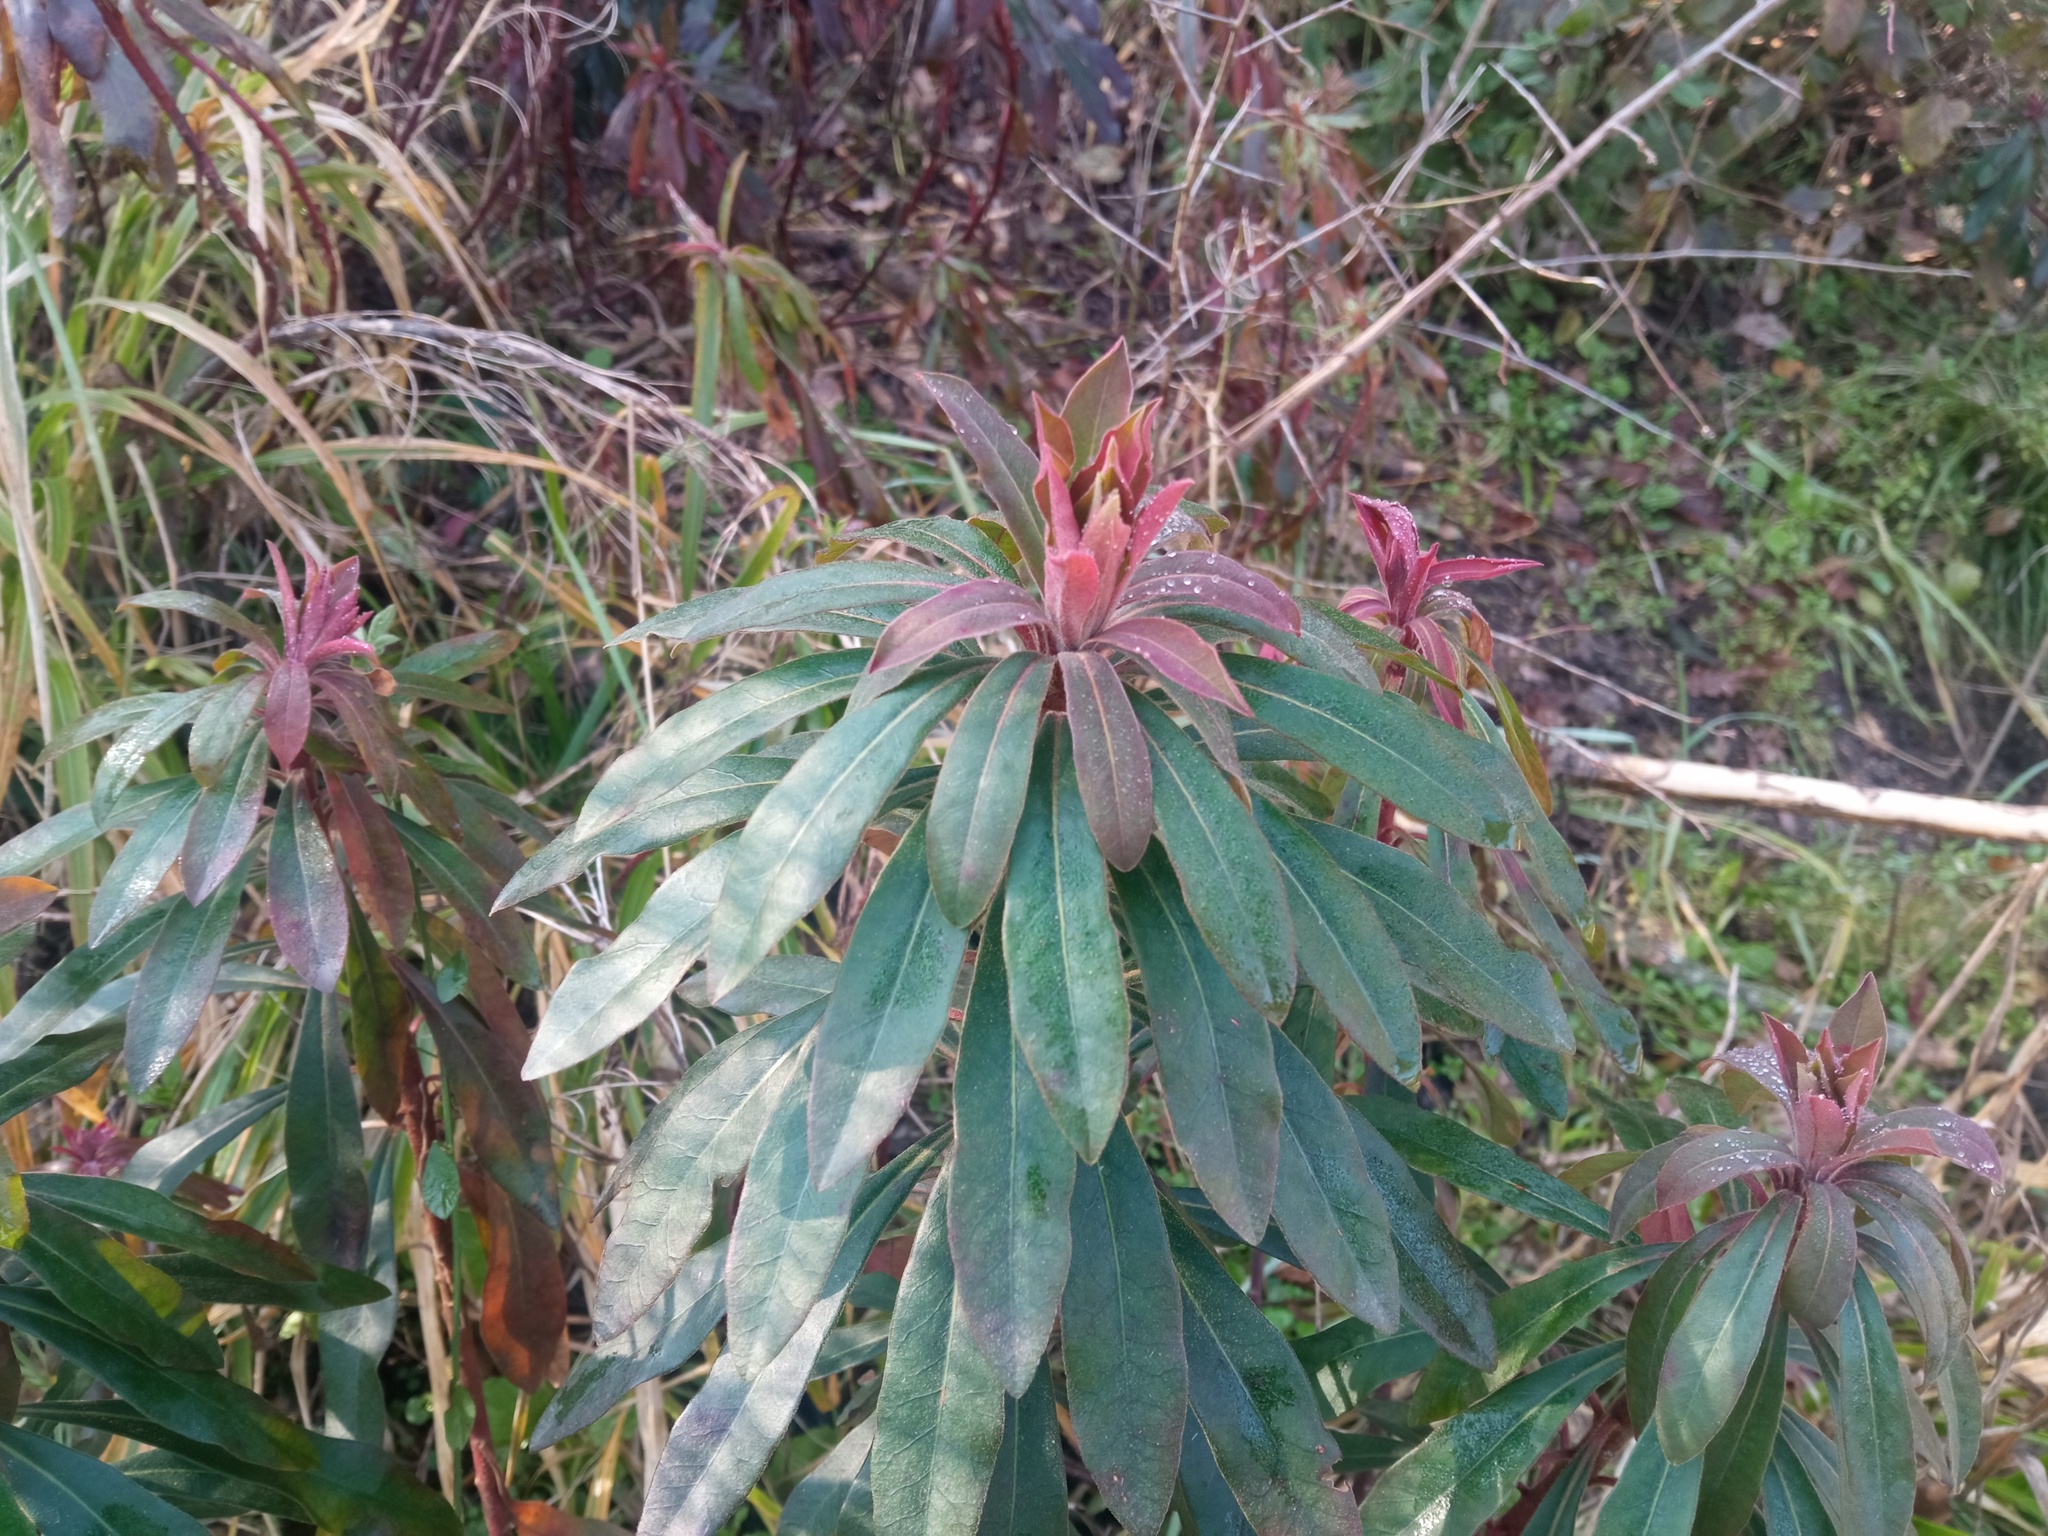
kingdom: Plantae
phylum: Tracheophyta
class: Magnoliopsida
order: Malpighiales
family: Euphorbiaceae
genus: Euphorbia
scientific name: Euphorbia amygdaloides
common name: Wood spurge
